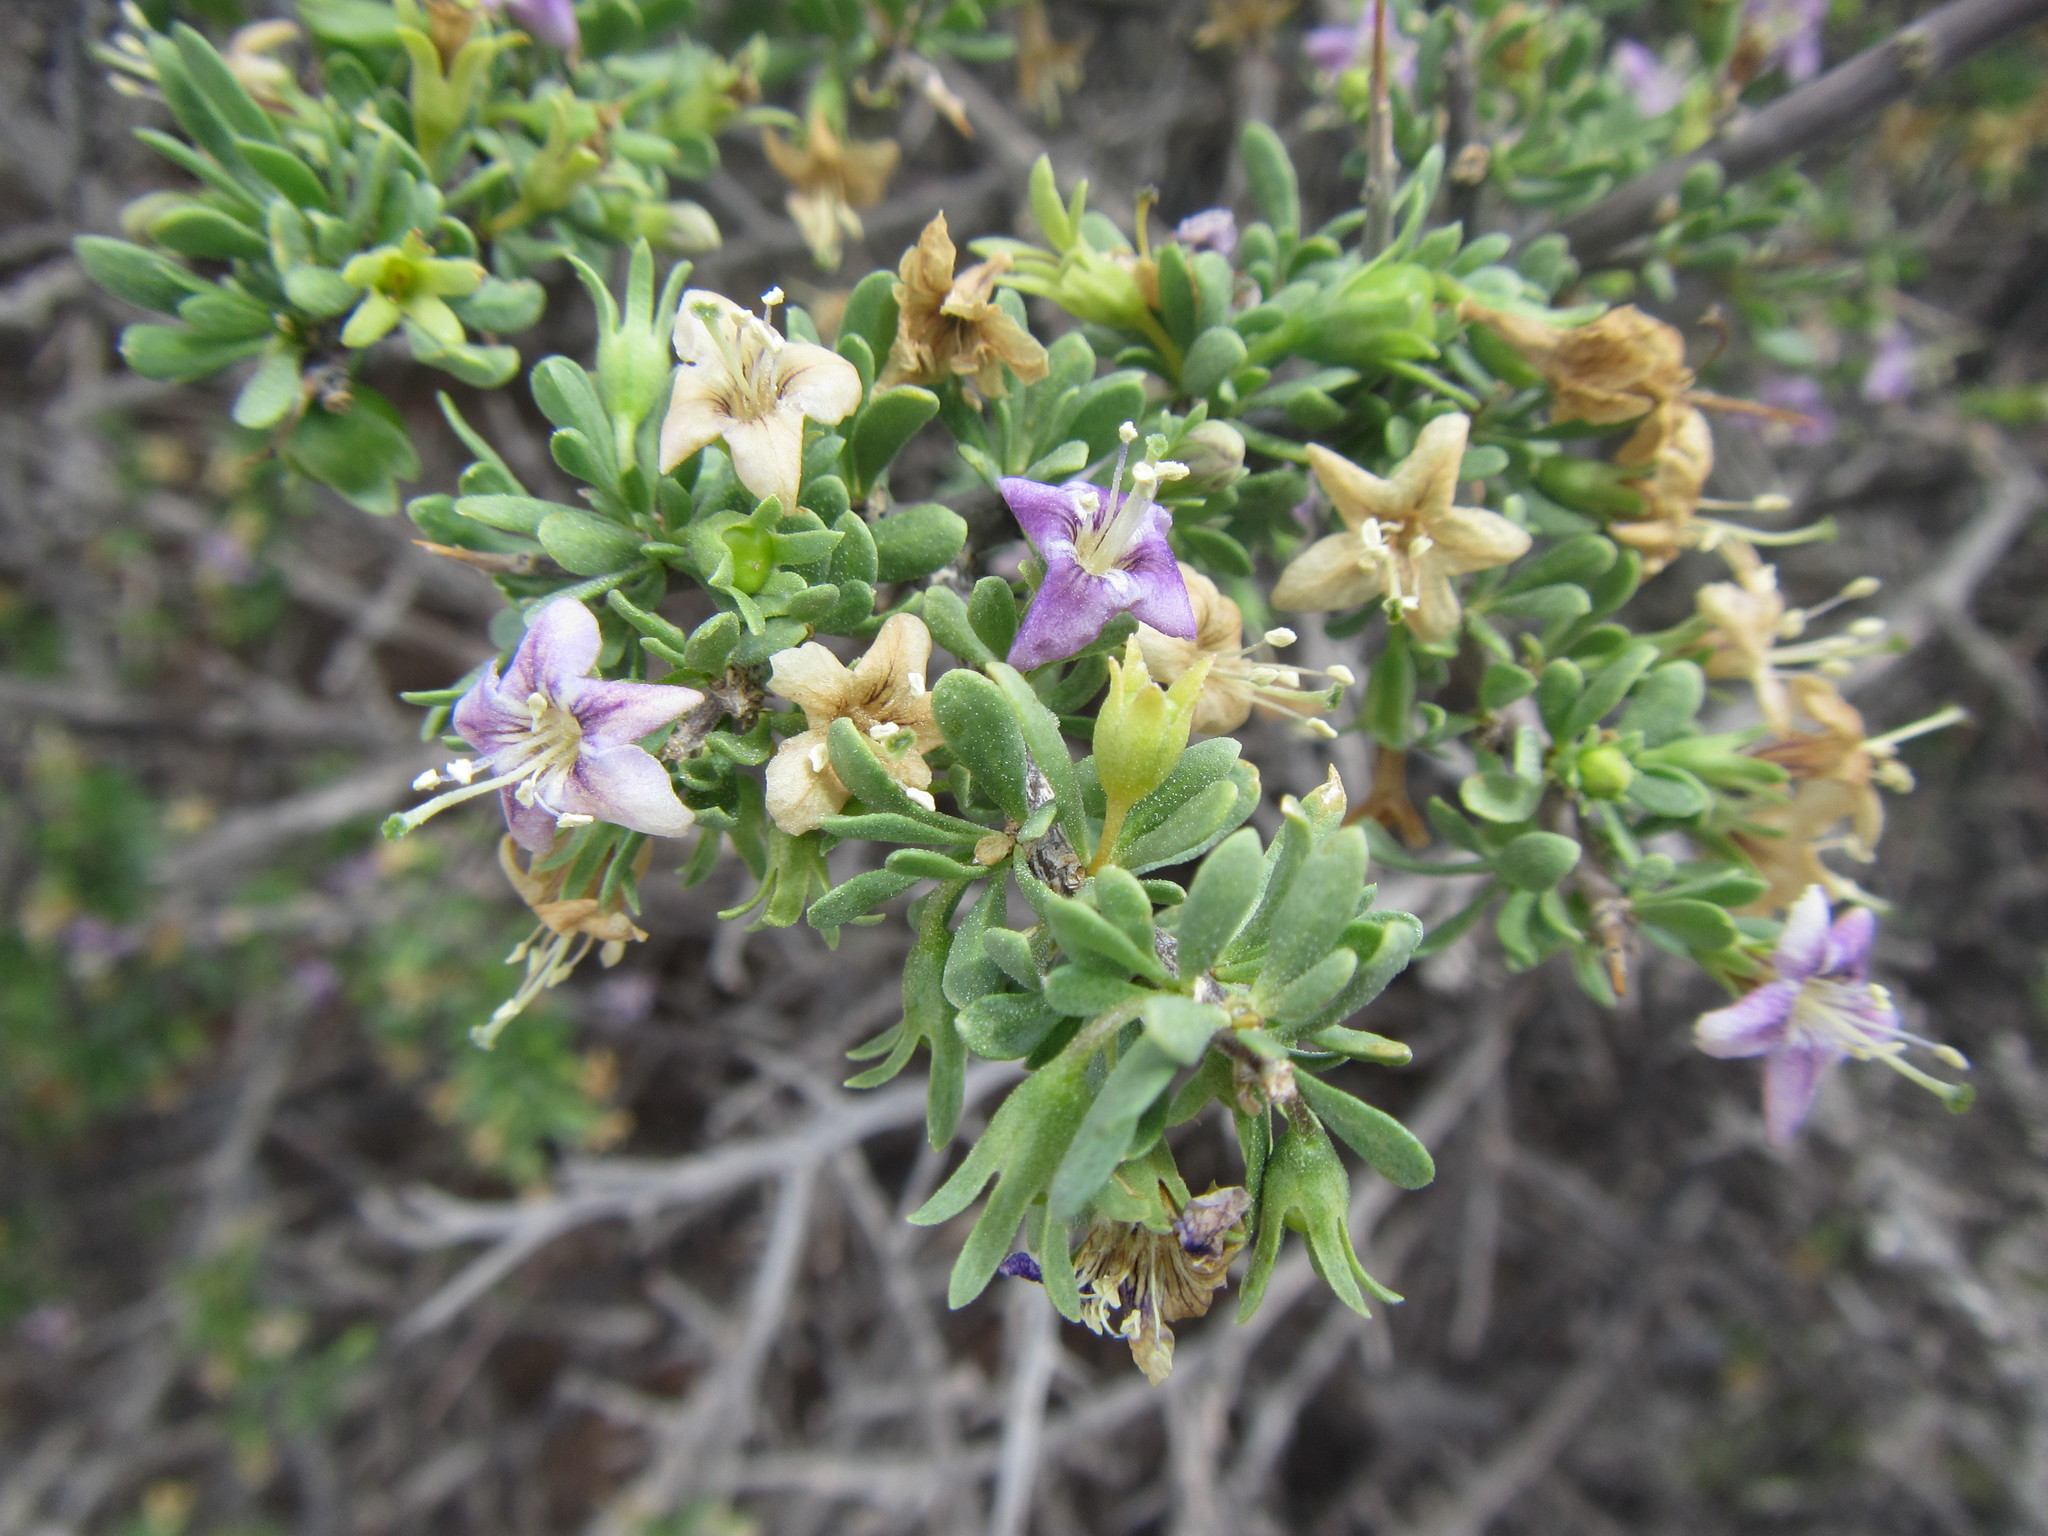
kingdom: Plantae
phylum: Tracheophyta
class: Magnoliopsida
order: Solanales
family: Solanaceae
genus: Lycium
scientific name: Lycium schizocalyx
